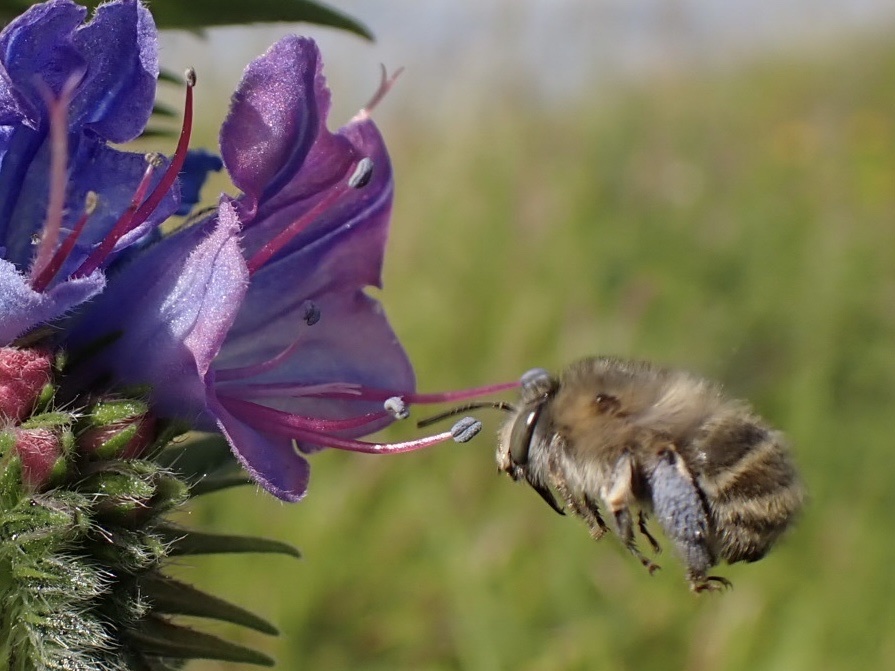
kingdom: Animalia
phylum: Arthropoda
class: Insecta
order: Hymenoptera
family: Apidae
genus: Anthophora
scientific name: Anthophora quadrimaculata
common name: Four-banded flower bee
